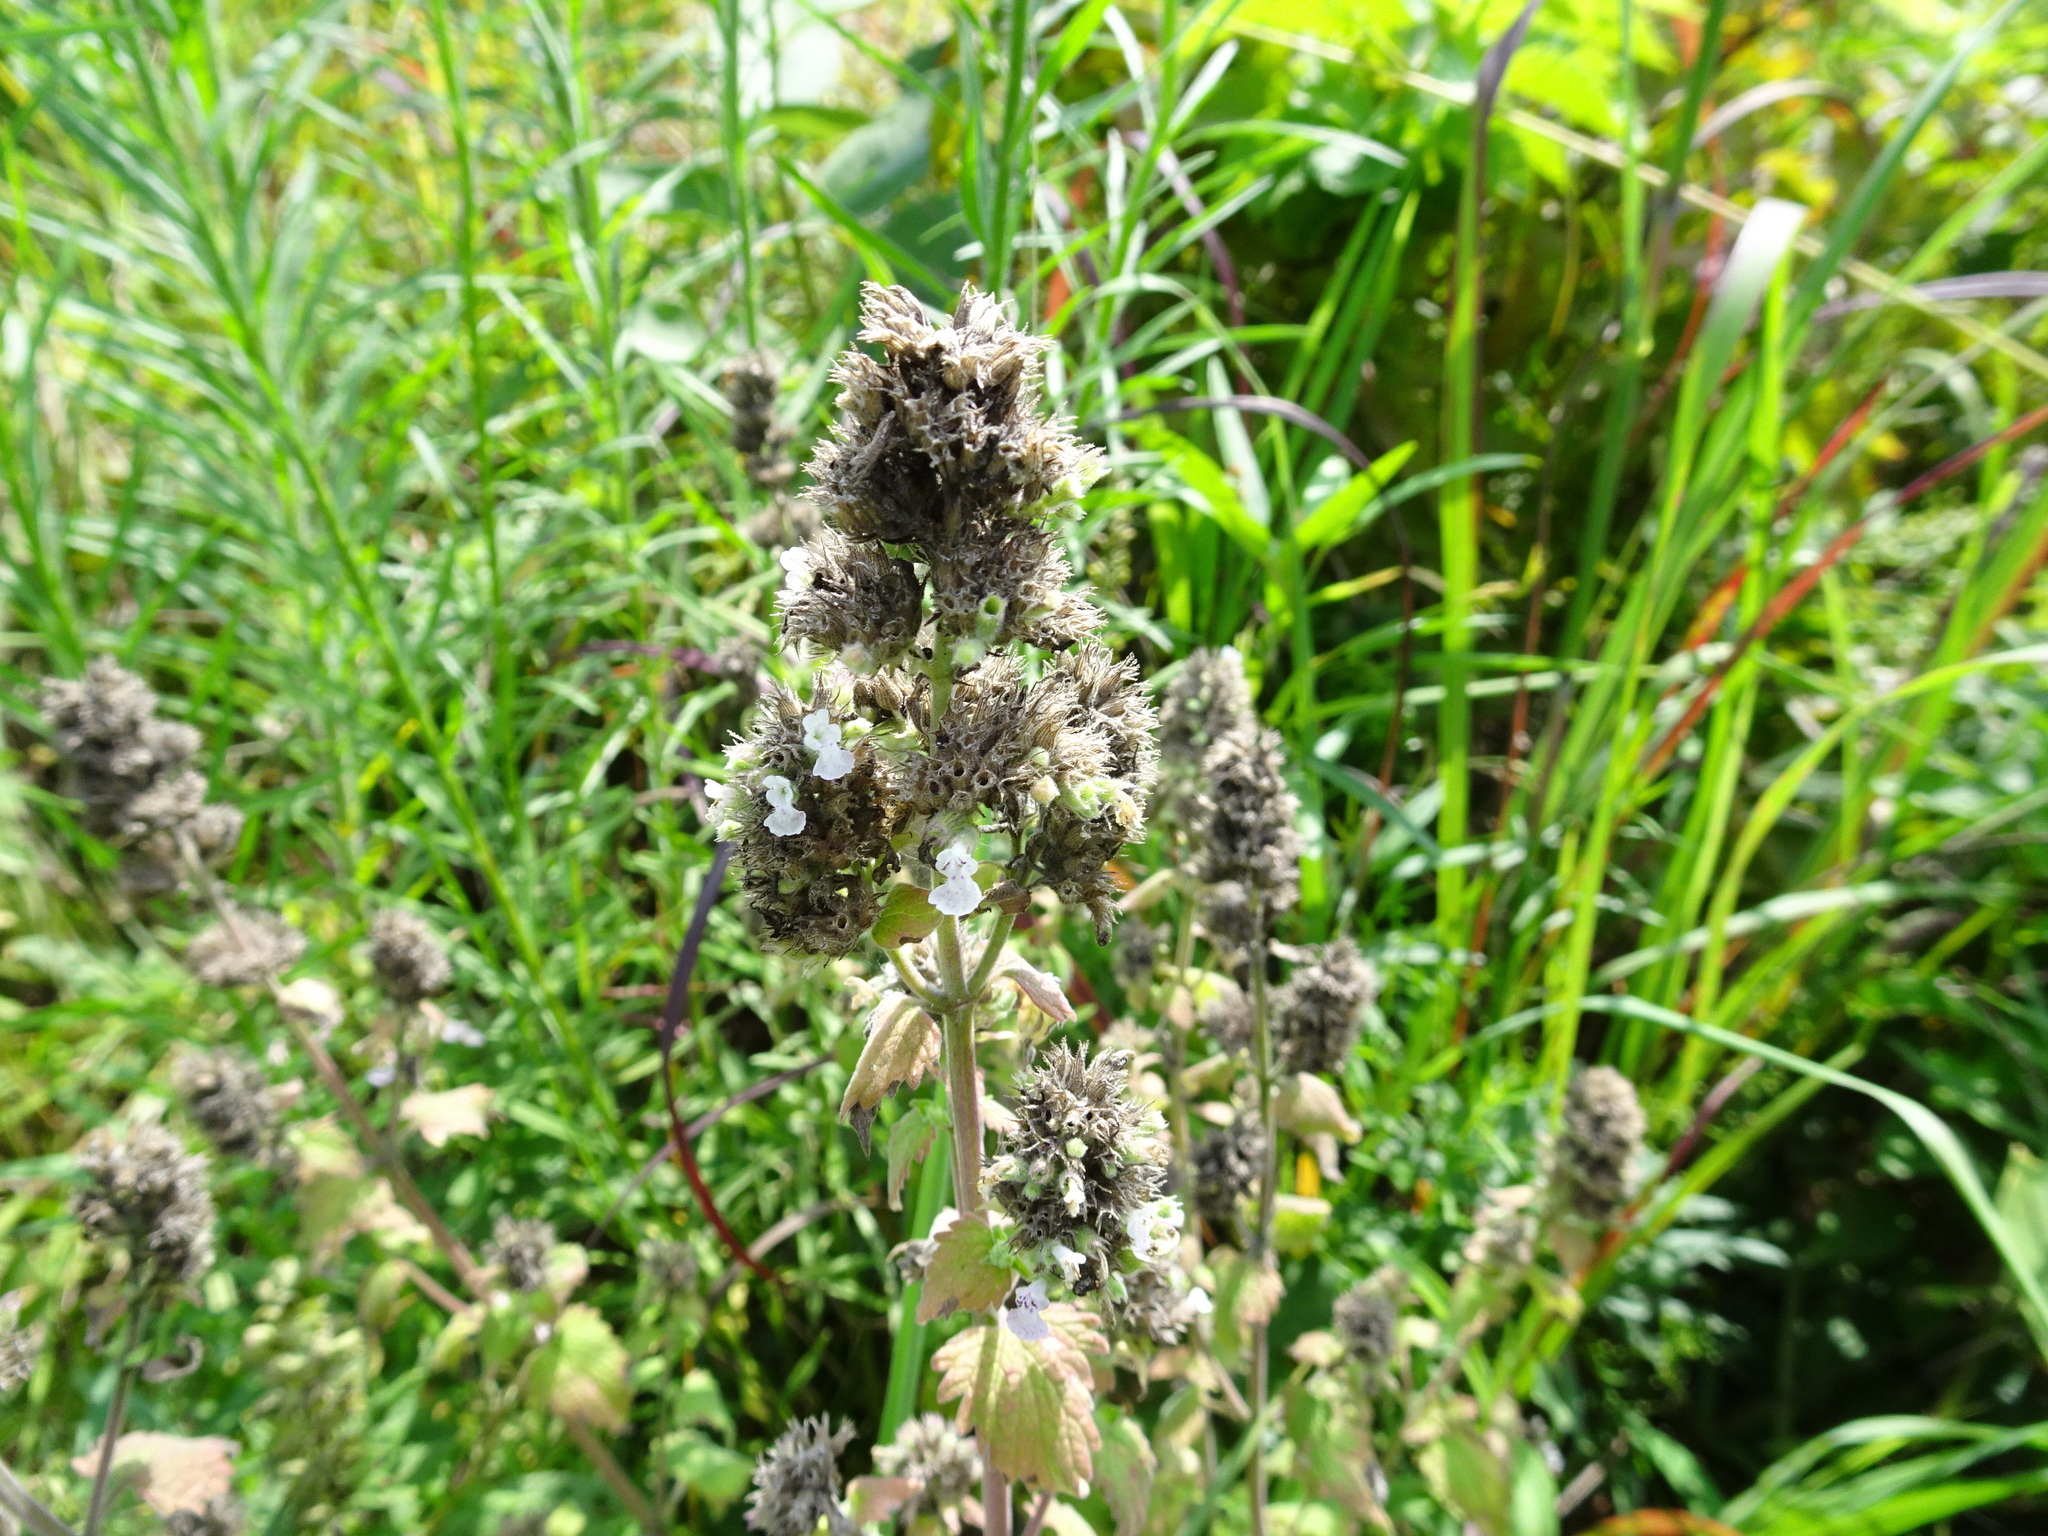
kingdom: Plantae
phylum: Tracheophyta
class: Magnoliopsida
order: Lamiales
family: Lamiaceae
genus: Nepeta
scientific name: Nepeta cataria
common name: Catnip
